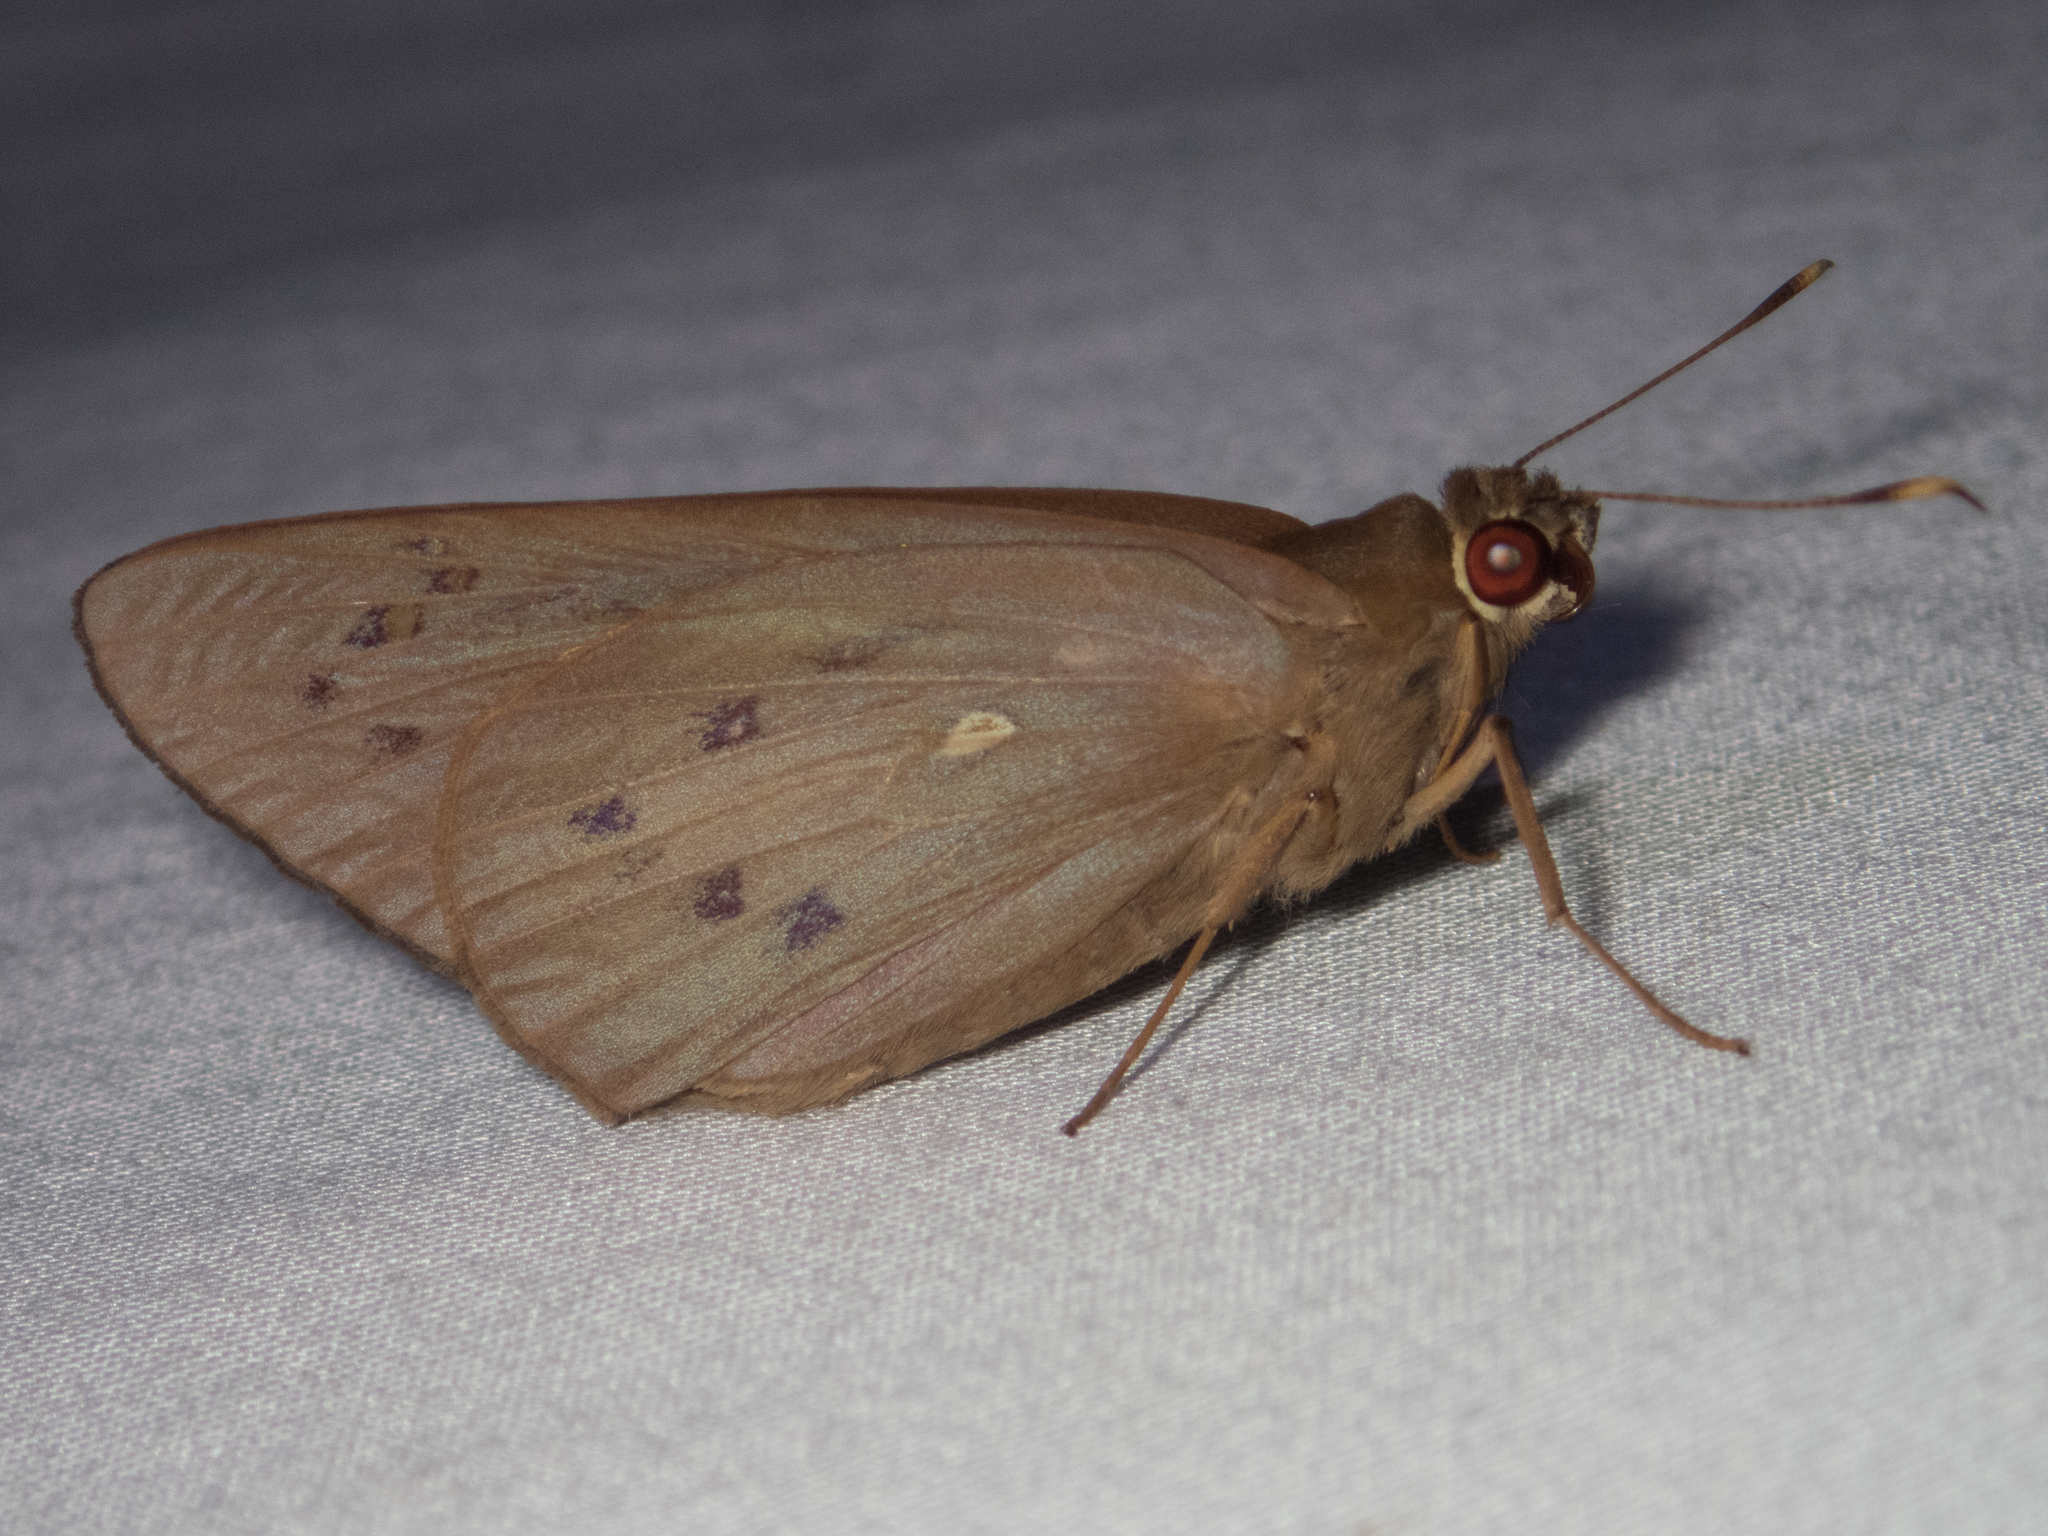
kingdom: Animalia
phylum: Arthropoda
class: Insecta
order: Lepidoptera
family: Hesperiidae
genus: Hidari
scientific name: Hidari irava
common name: Coconut skipper
